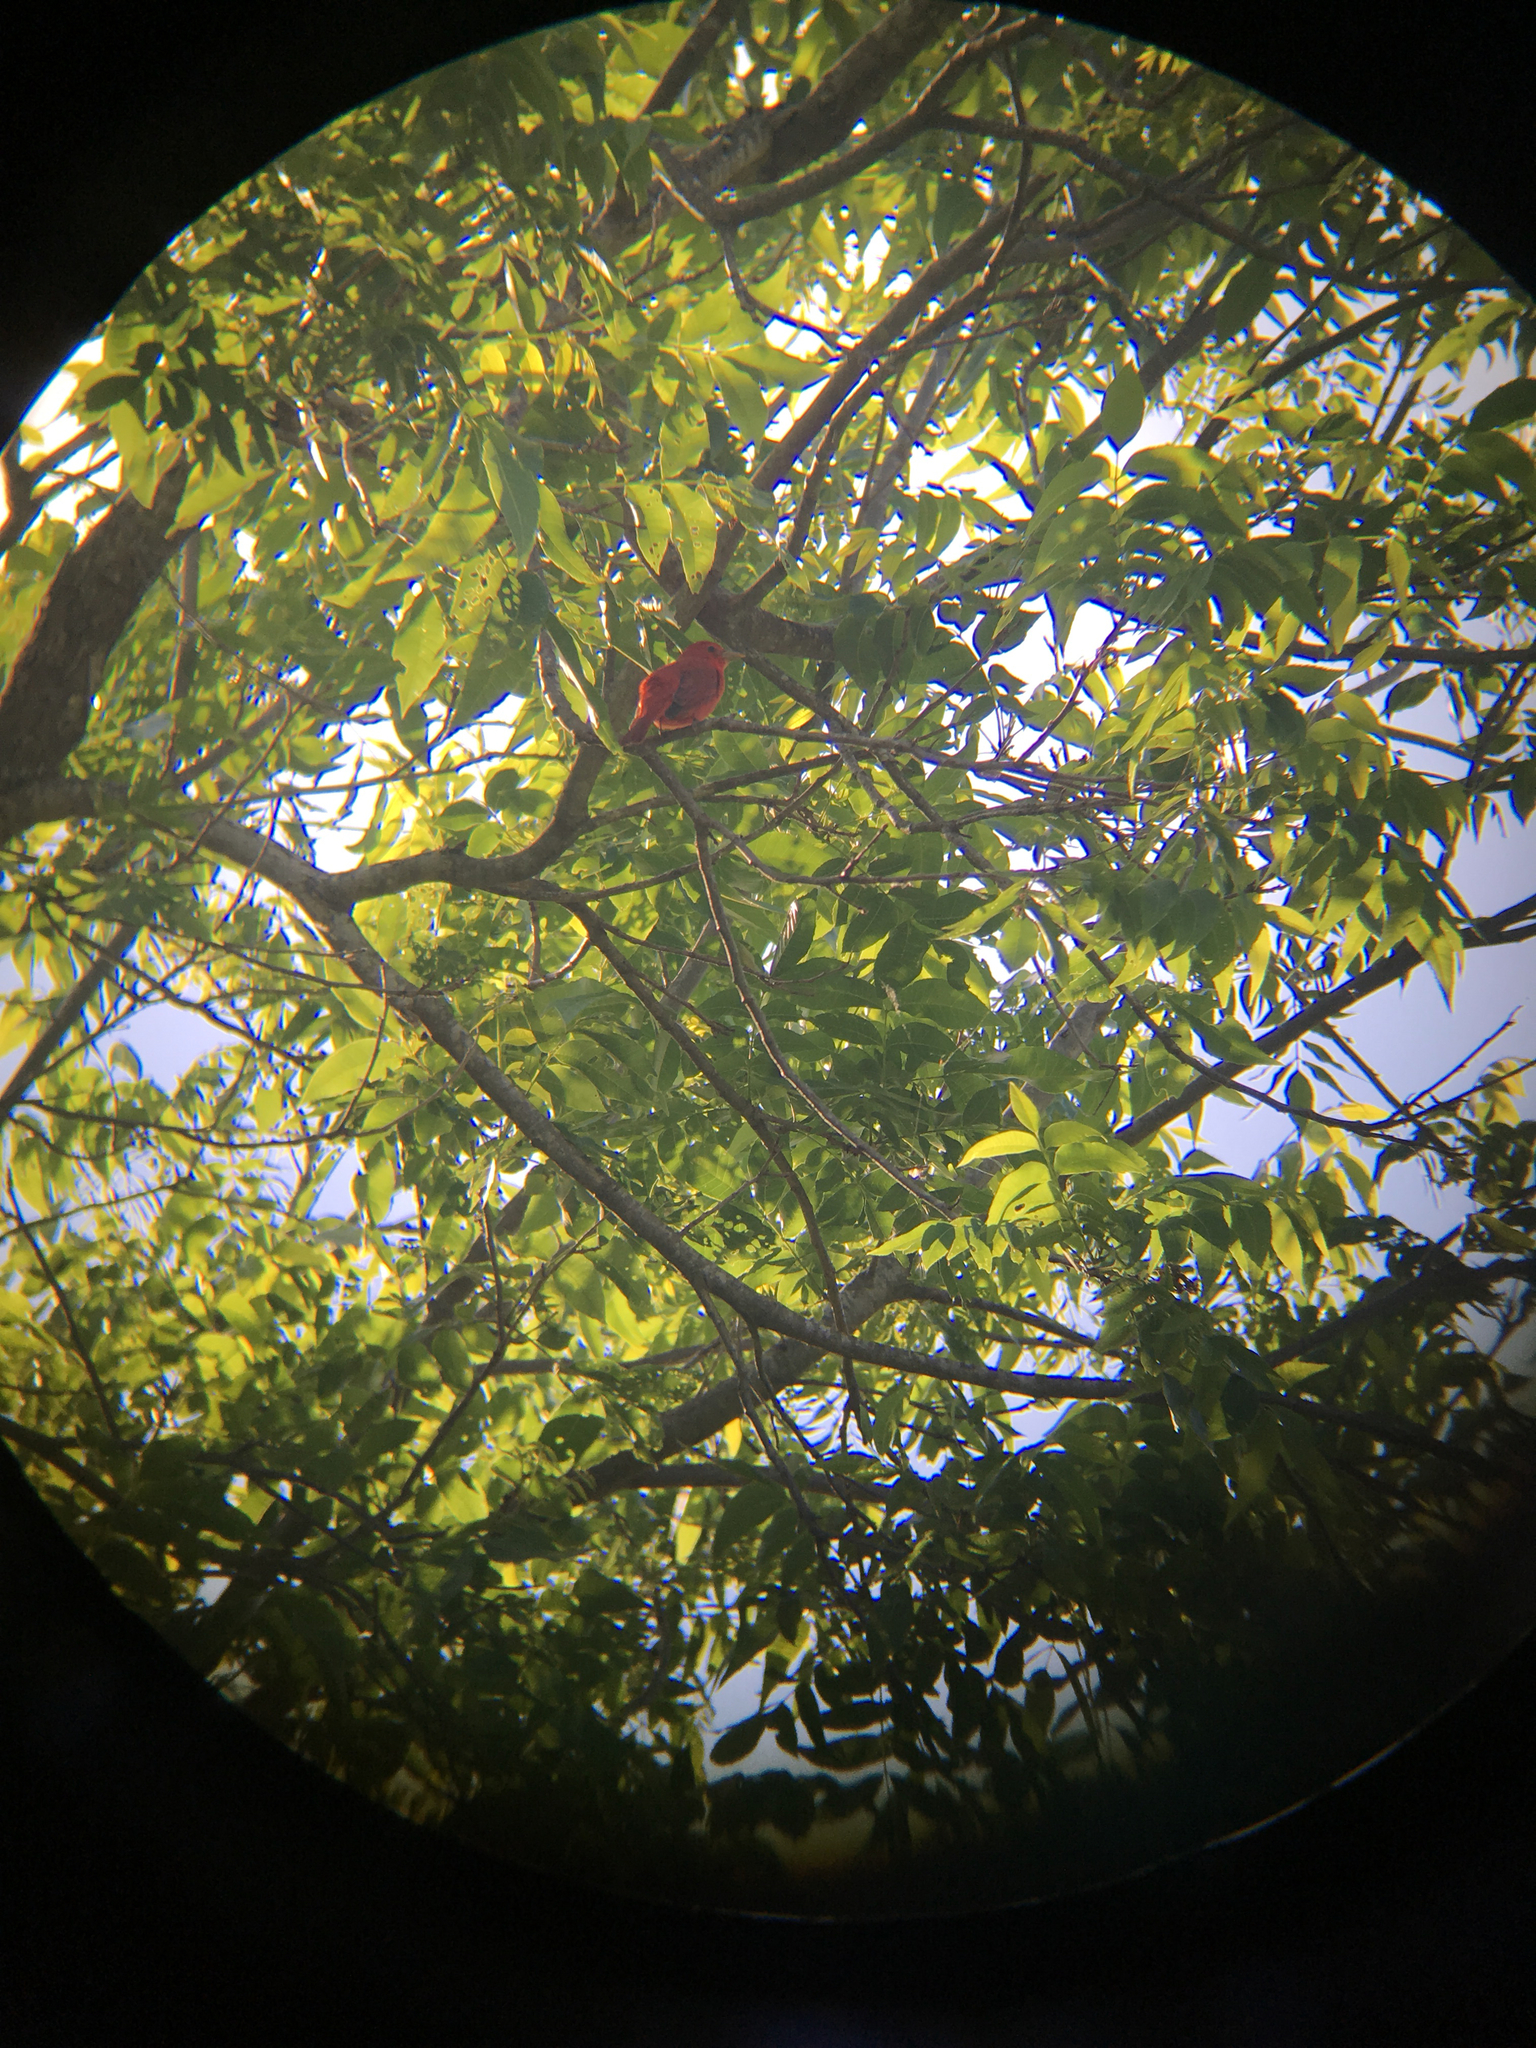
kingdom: Animalia
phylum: Chordata
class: Aves
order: Passeriformes
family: Cardinalidae
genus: Piranga
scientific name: Piranga rubra
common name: Summer tanager
